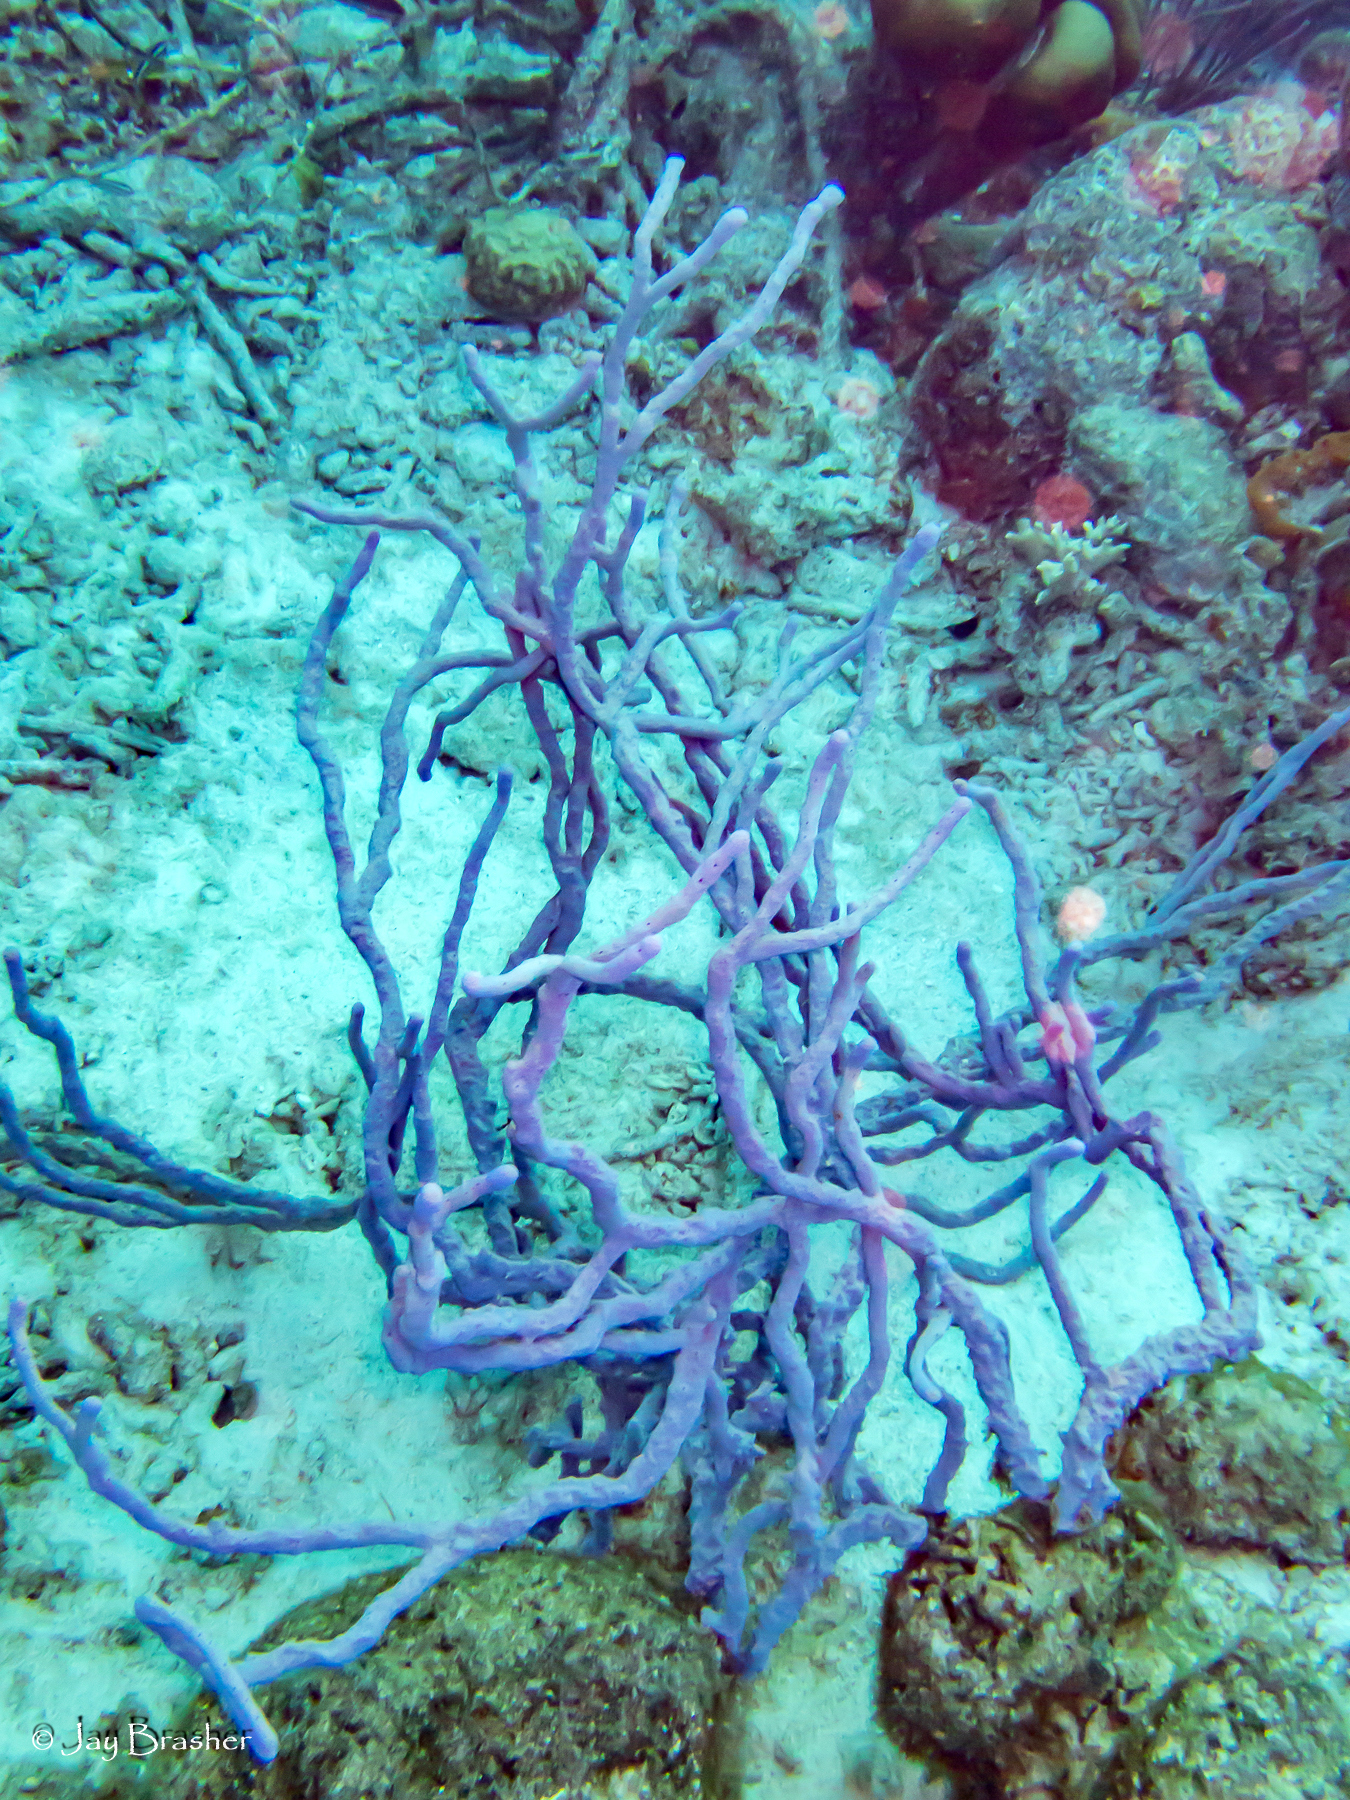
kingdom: Animalia
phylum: Porifera
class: Demospongiae
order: Verongiida
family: Aplysinidae
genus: Aplysina
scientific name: Aplysina cauliformis
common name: Branching candle sponge
